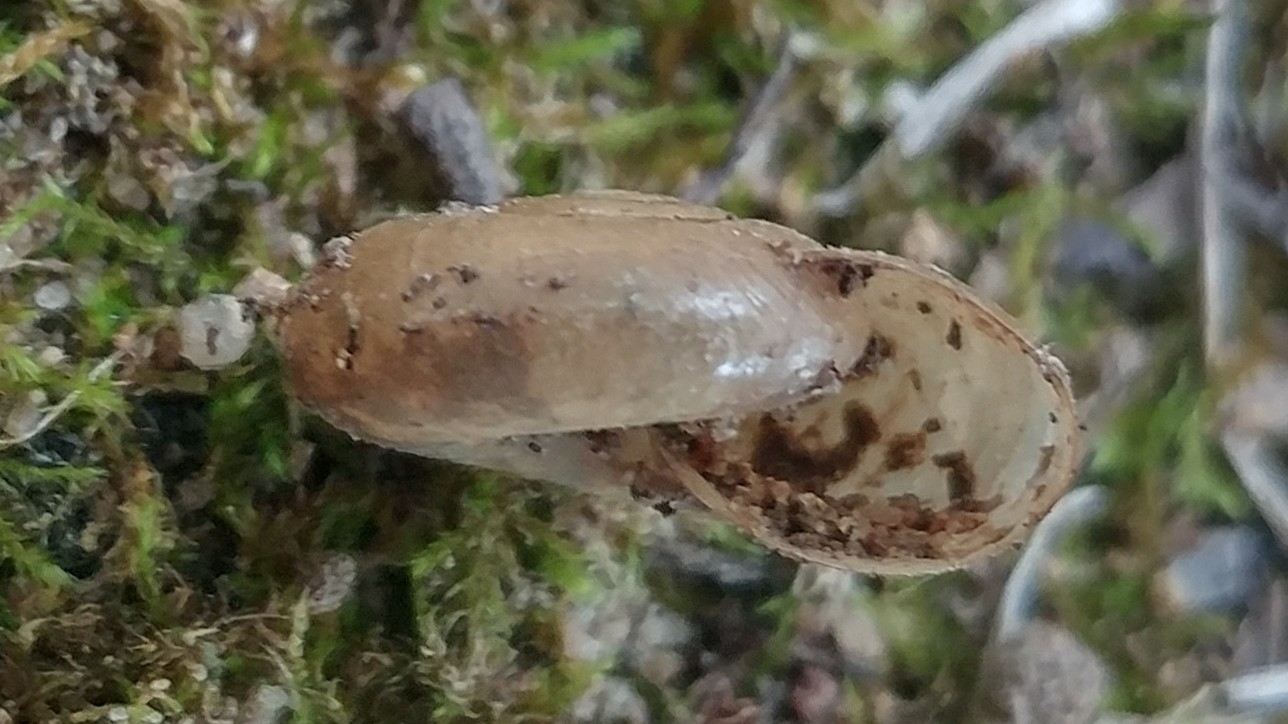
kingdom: Animalia
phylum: Mollusca
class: Gastropoda
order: Stylommatophora
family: Oxychilidae
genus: Oxychilus
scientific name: Oxychilus draparnaudi
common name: Draparnaud's glass snail
